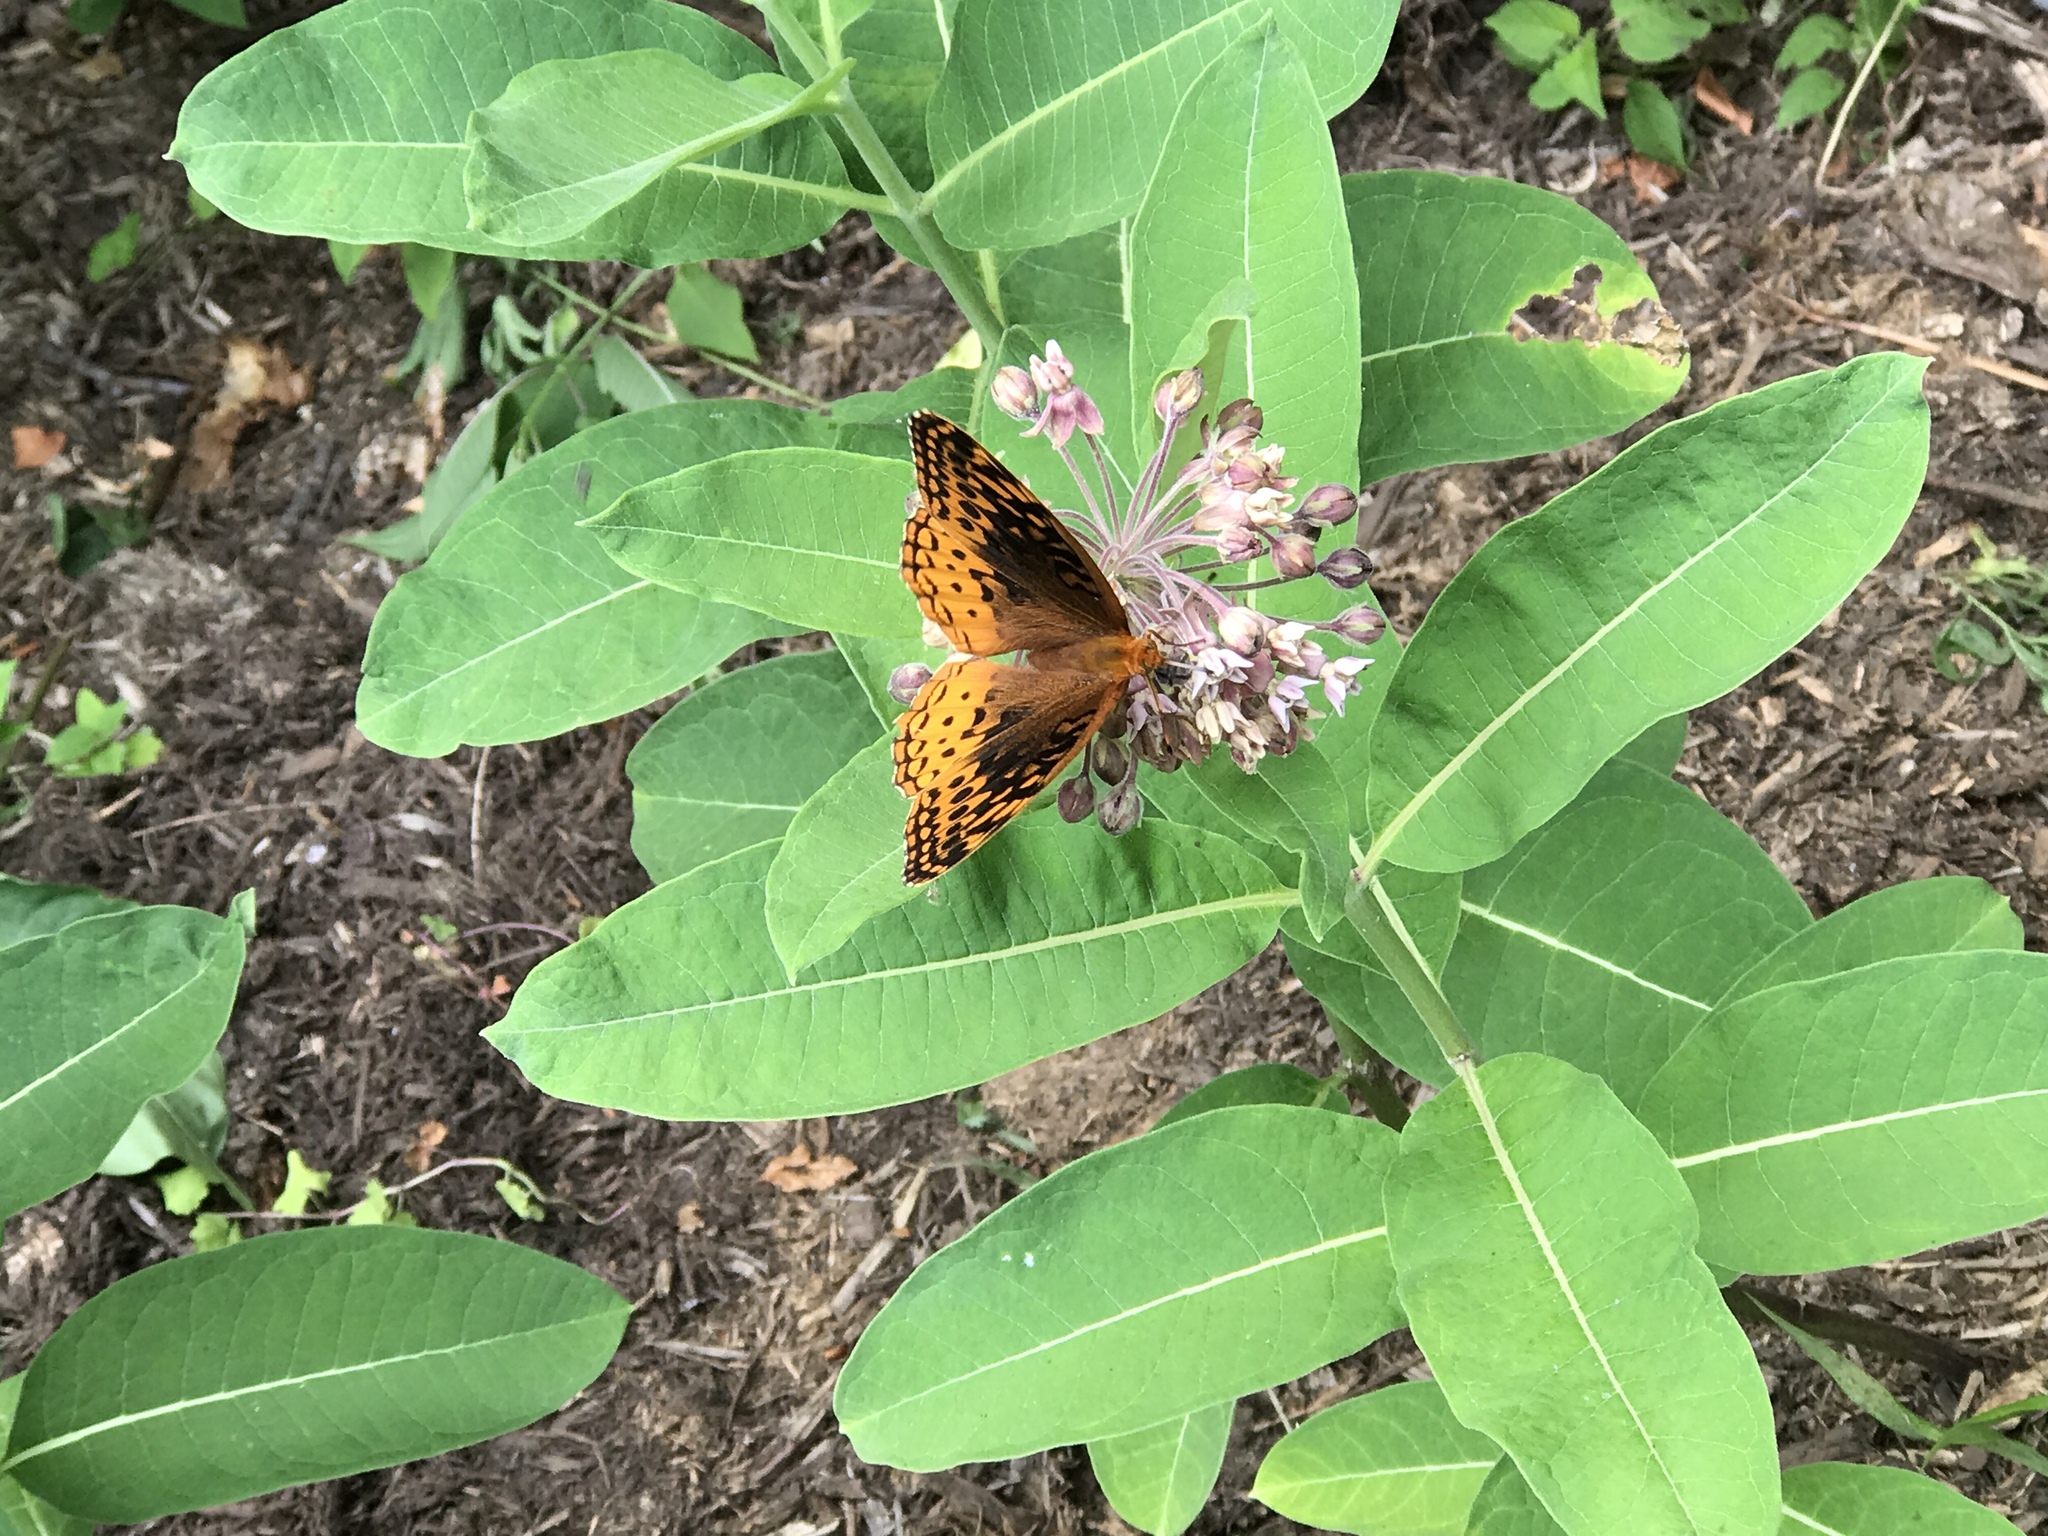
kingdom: Animalia
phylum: Arthropoda
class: Insecta
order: Lepidoptera
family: Nymphalidae
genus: Speyeria
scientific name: Speyeria cybele
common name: Great spangled fritillary
